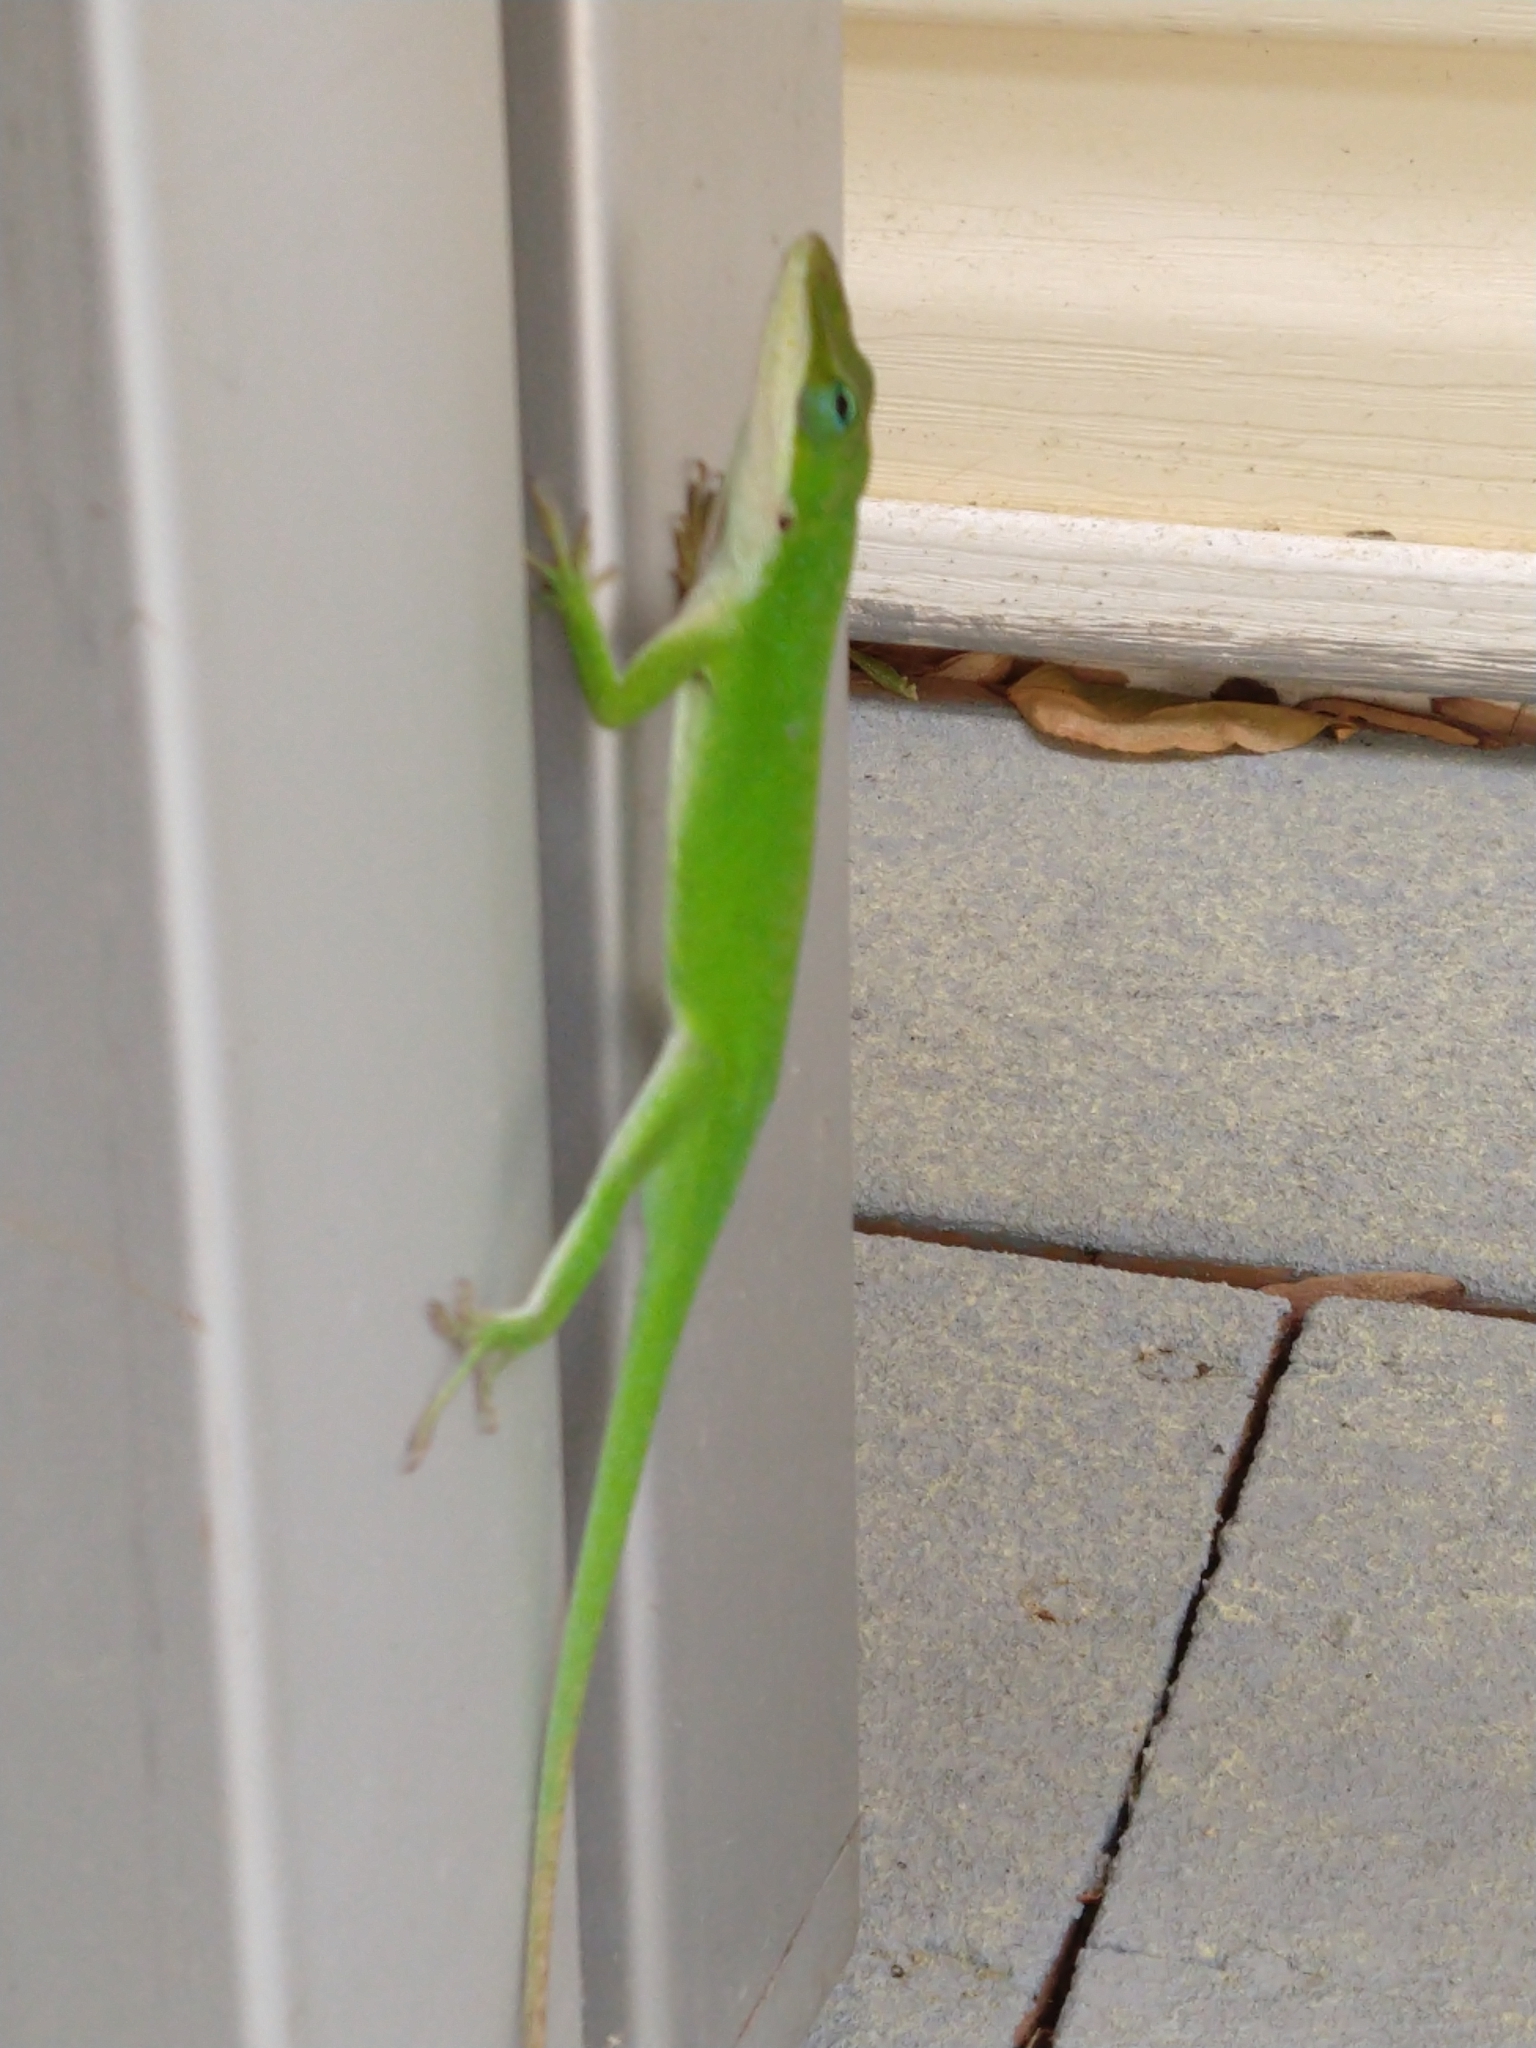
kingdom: Animalia
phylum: Chordata
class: Squamata
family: Dactyloidae
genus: Anolis
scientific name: Anolis carolinensis
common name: Green anole
